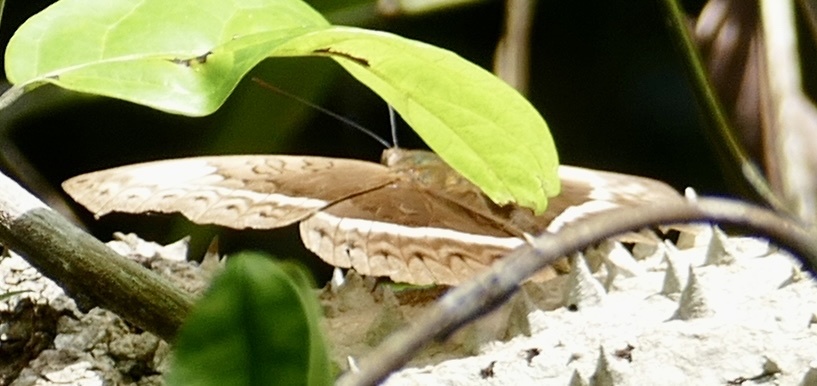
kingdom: Animalia
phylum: Arthropoda
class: Insecta
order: Lepidoptera
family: Nymphalidae
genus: Cymothoe
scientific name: Cymothoe egesta
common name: Common yellow glider
